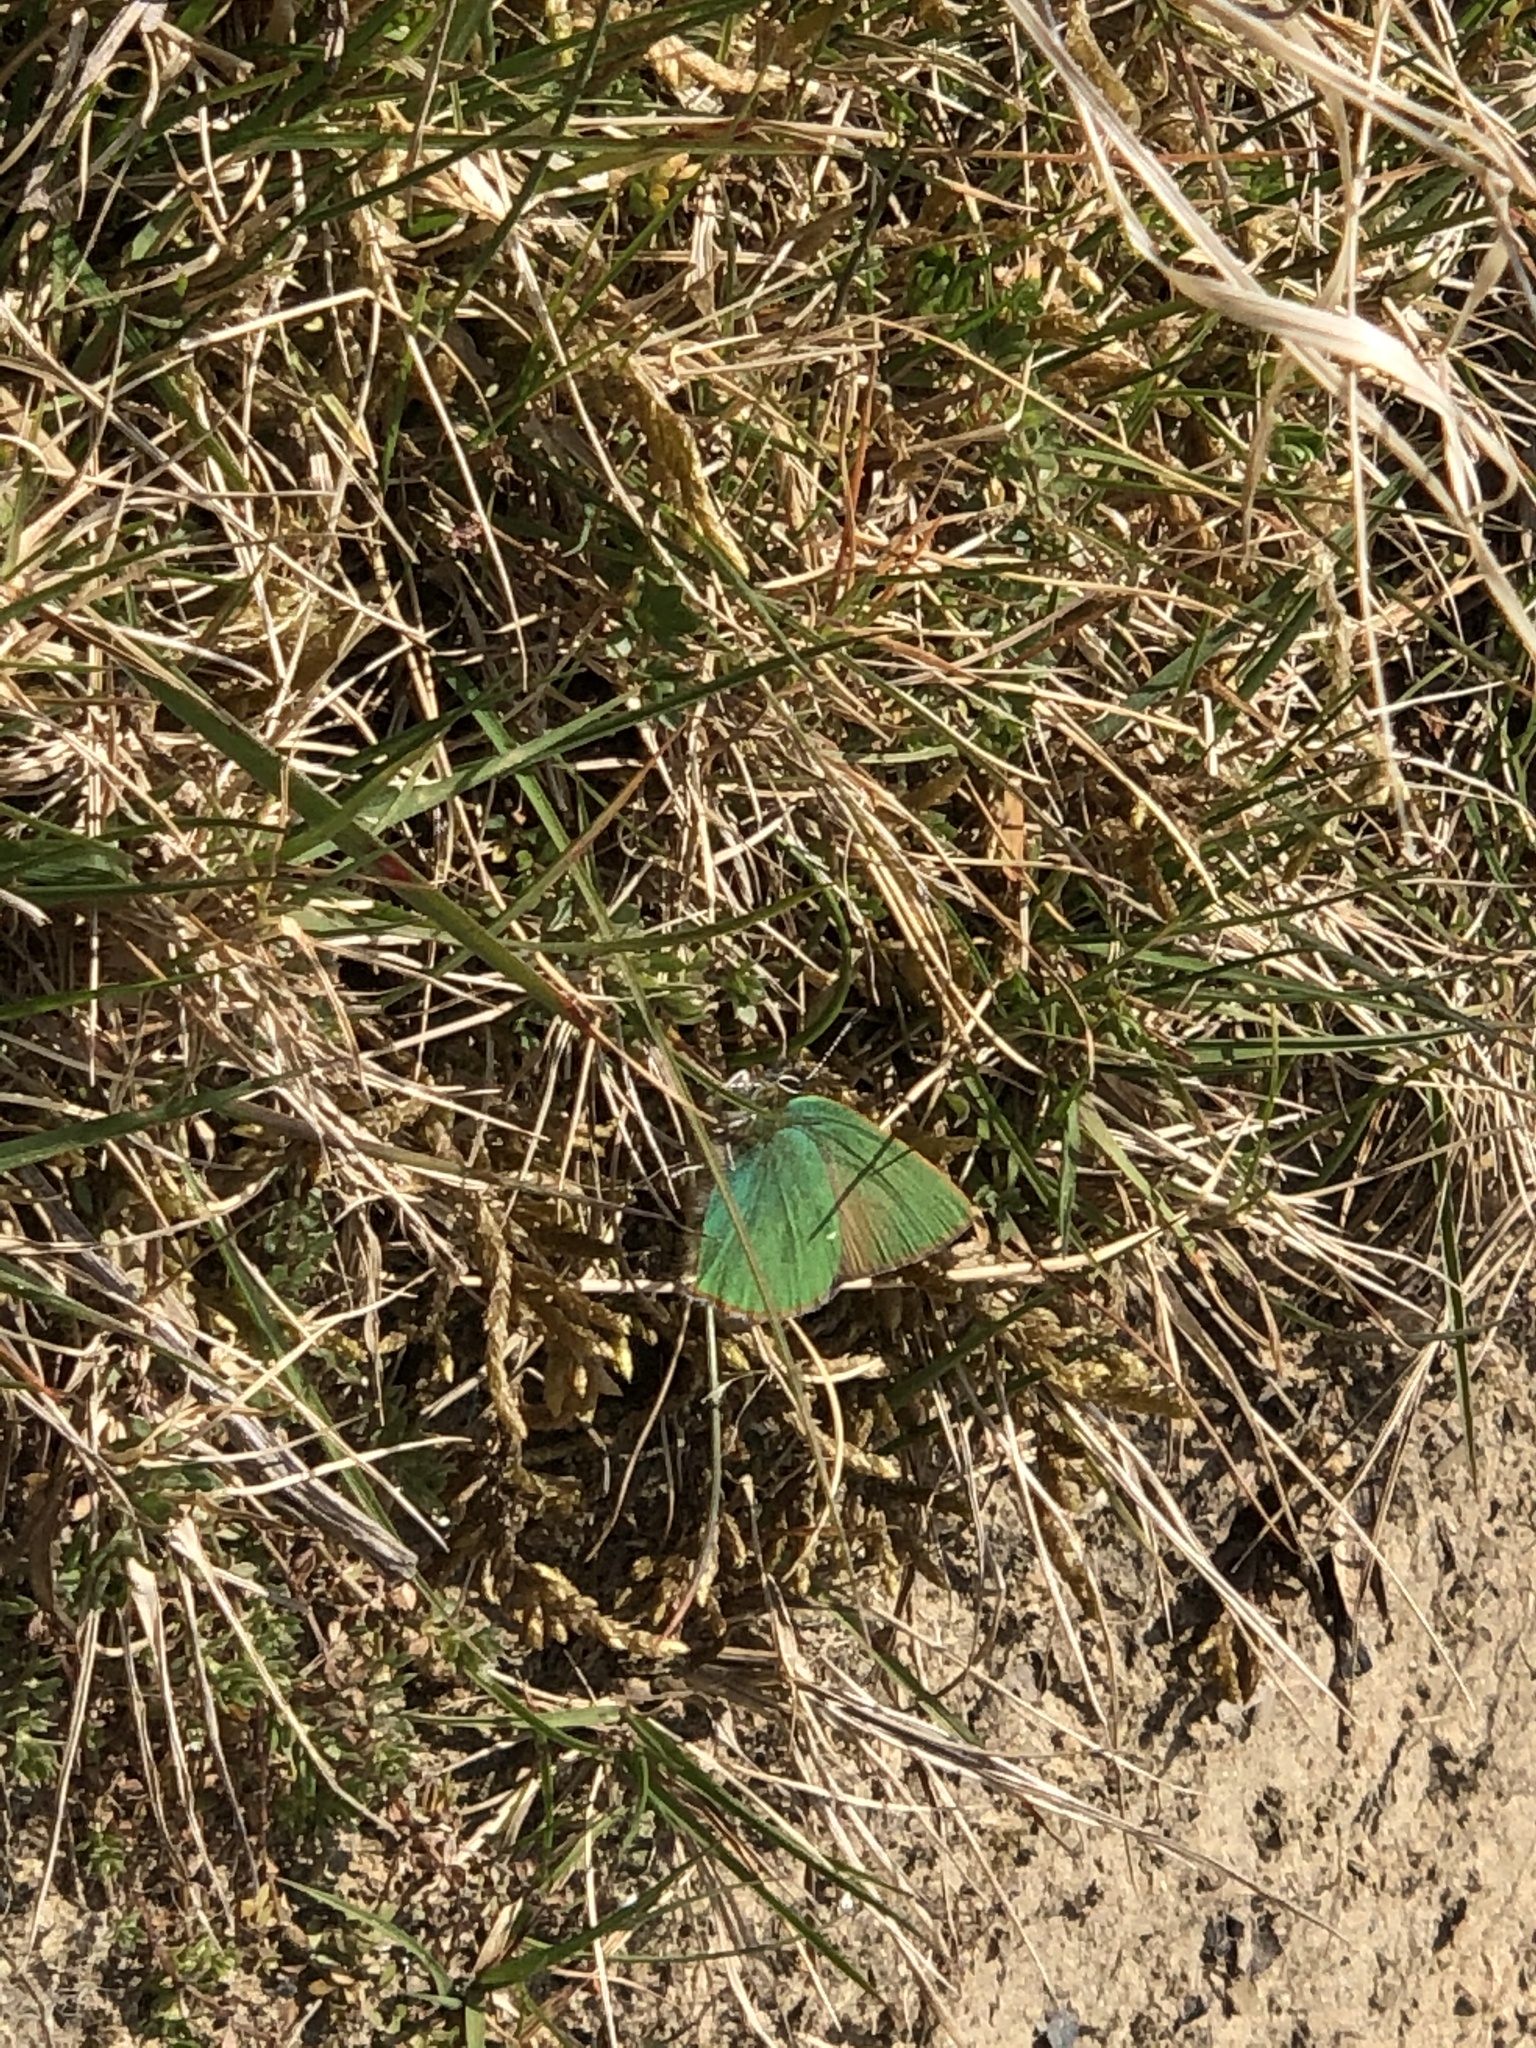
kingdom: Animalia
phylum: Arthropoda
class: Insecta
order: Lepidoptera
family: Lycaenidae
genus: Callophrys
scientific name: Callophrys rubi
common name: Green hairstreak
